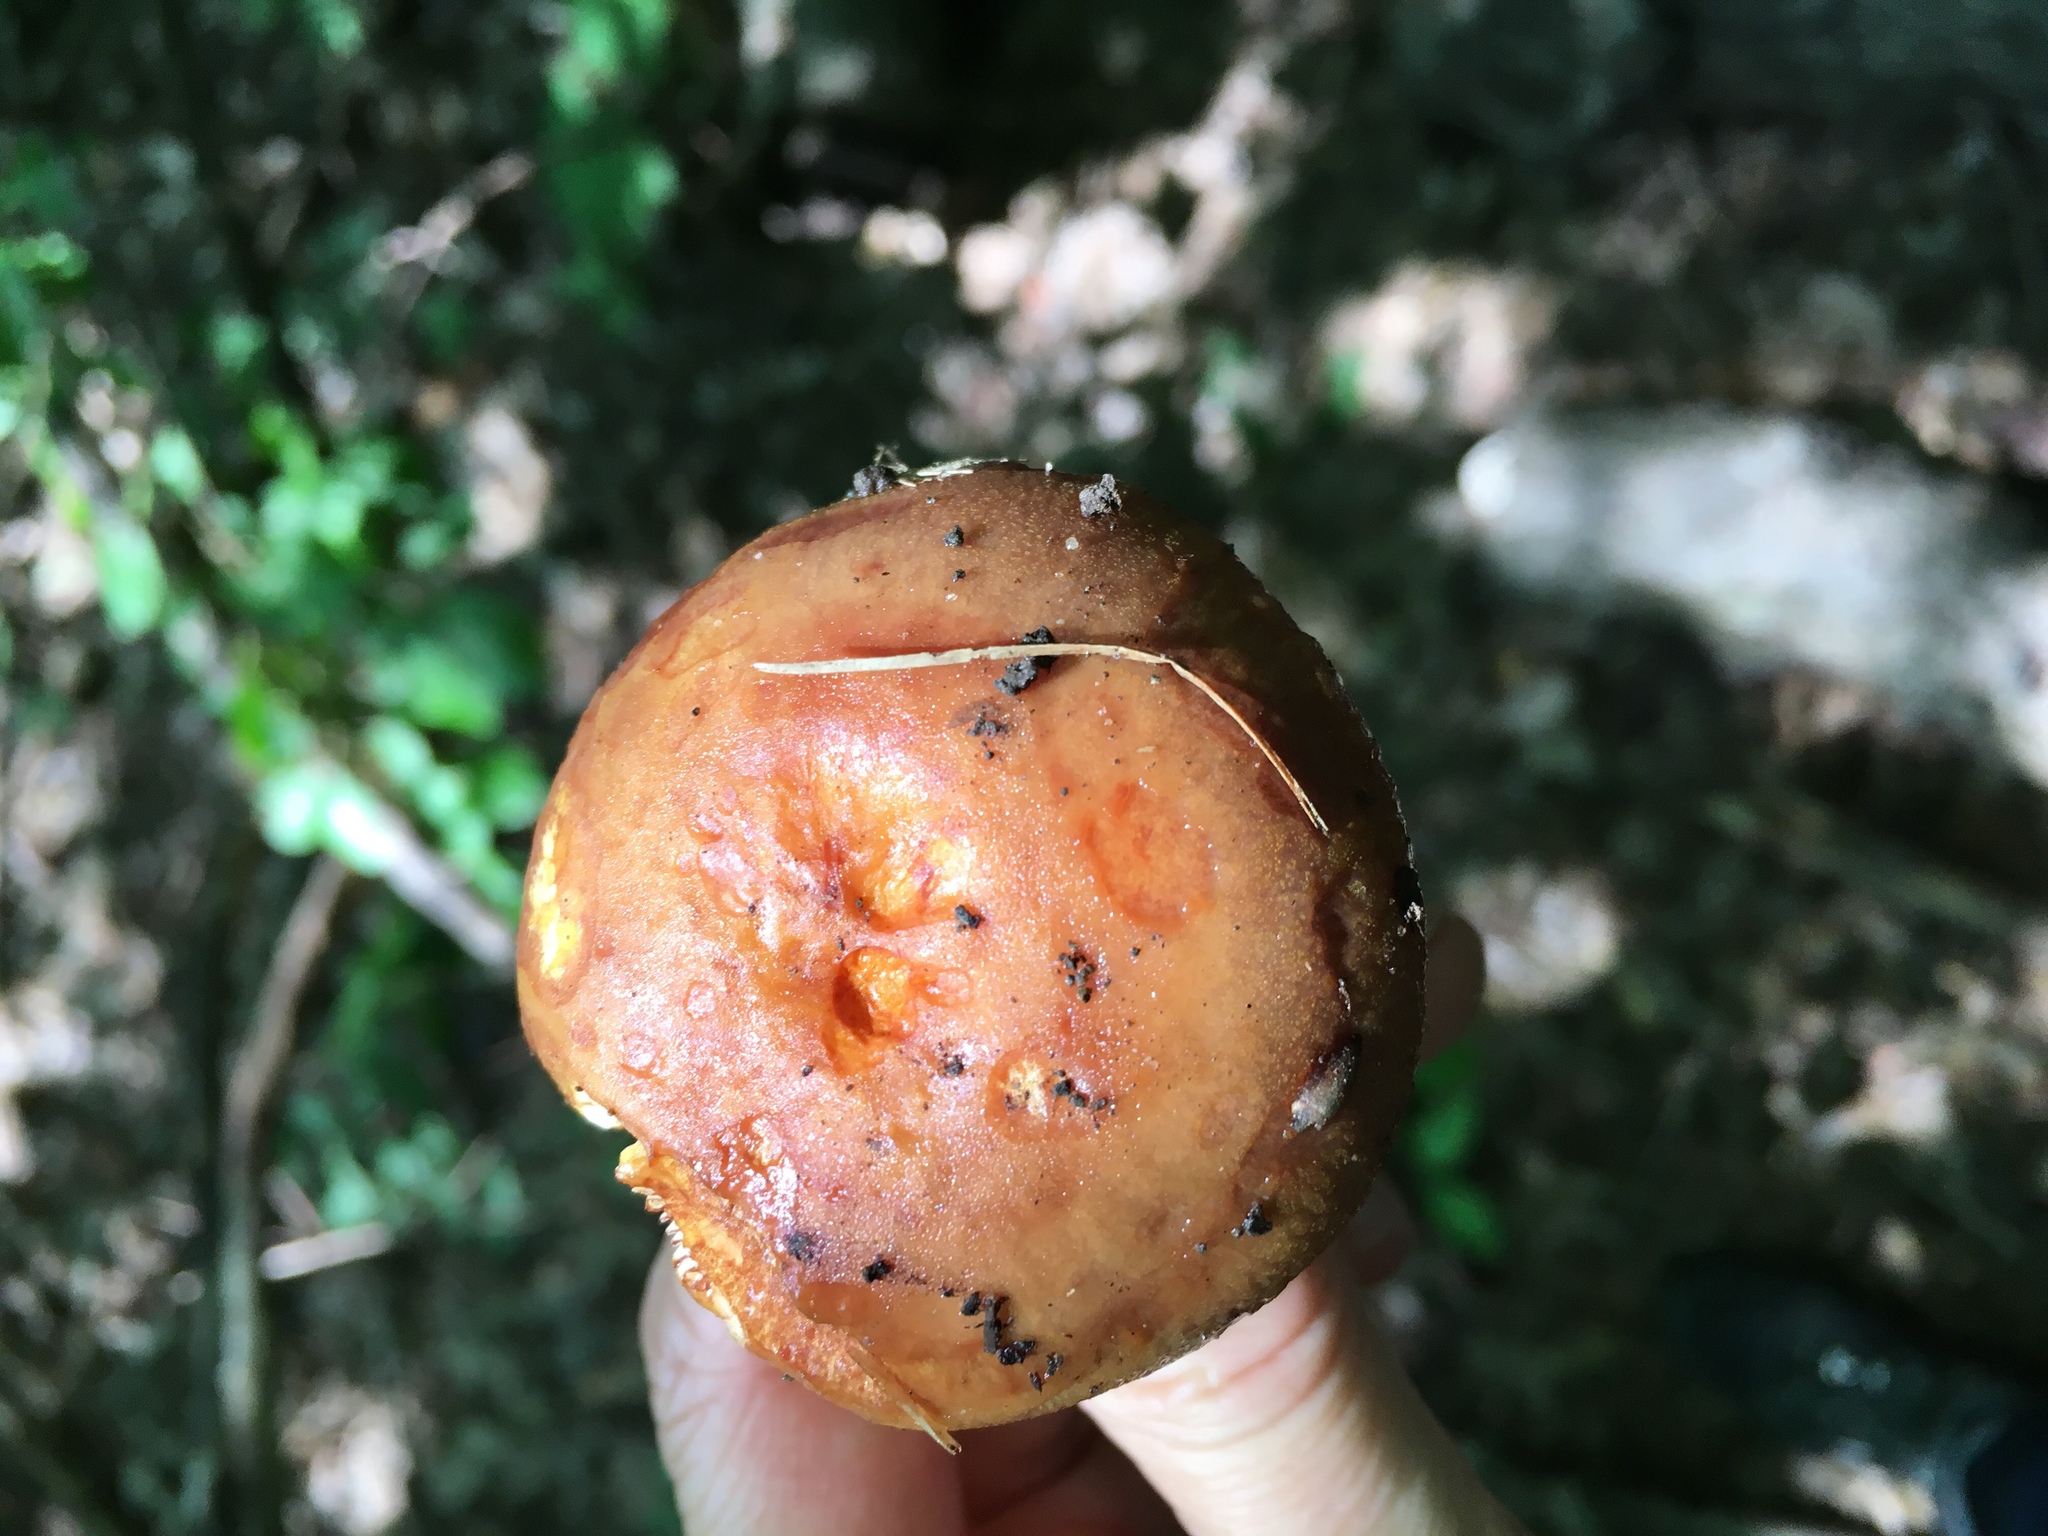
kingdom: Fungi
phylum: Basidiomycota
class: Agaricomycetes
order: Russulales
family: Russulaceae
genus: Russula
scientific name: Russula grata
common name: Bitter almond brittlegill
